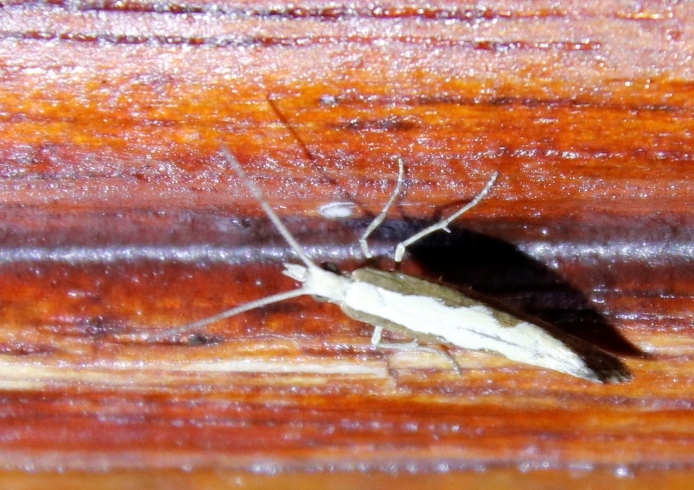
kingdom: Animalia
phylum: Arthropoda
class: Insecta
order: Lepidoptera
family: Plutellidae
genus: Plutella
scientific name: Plutella xylostella
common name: Diamond-back moth
